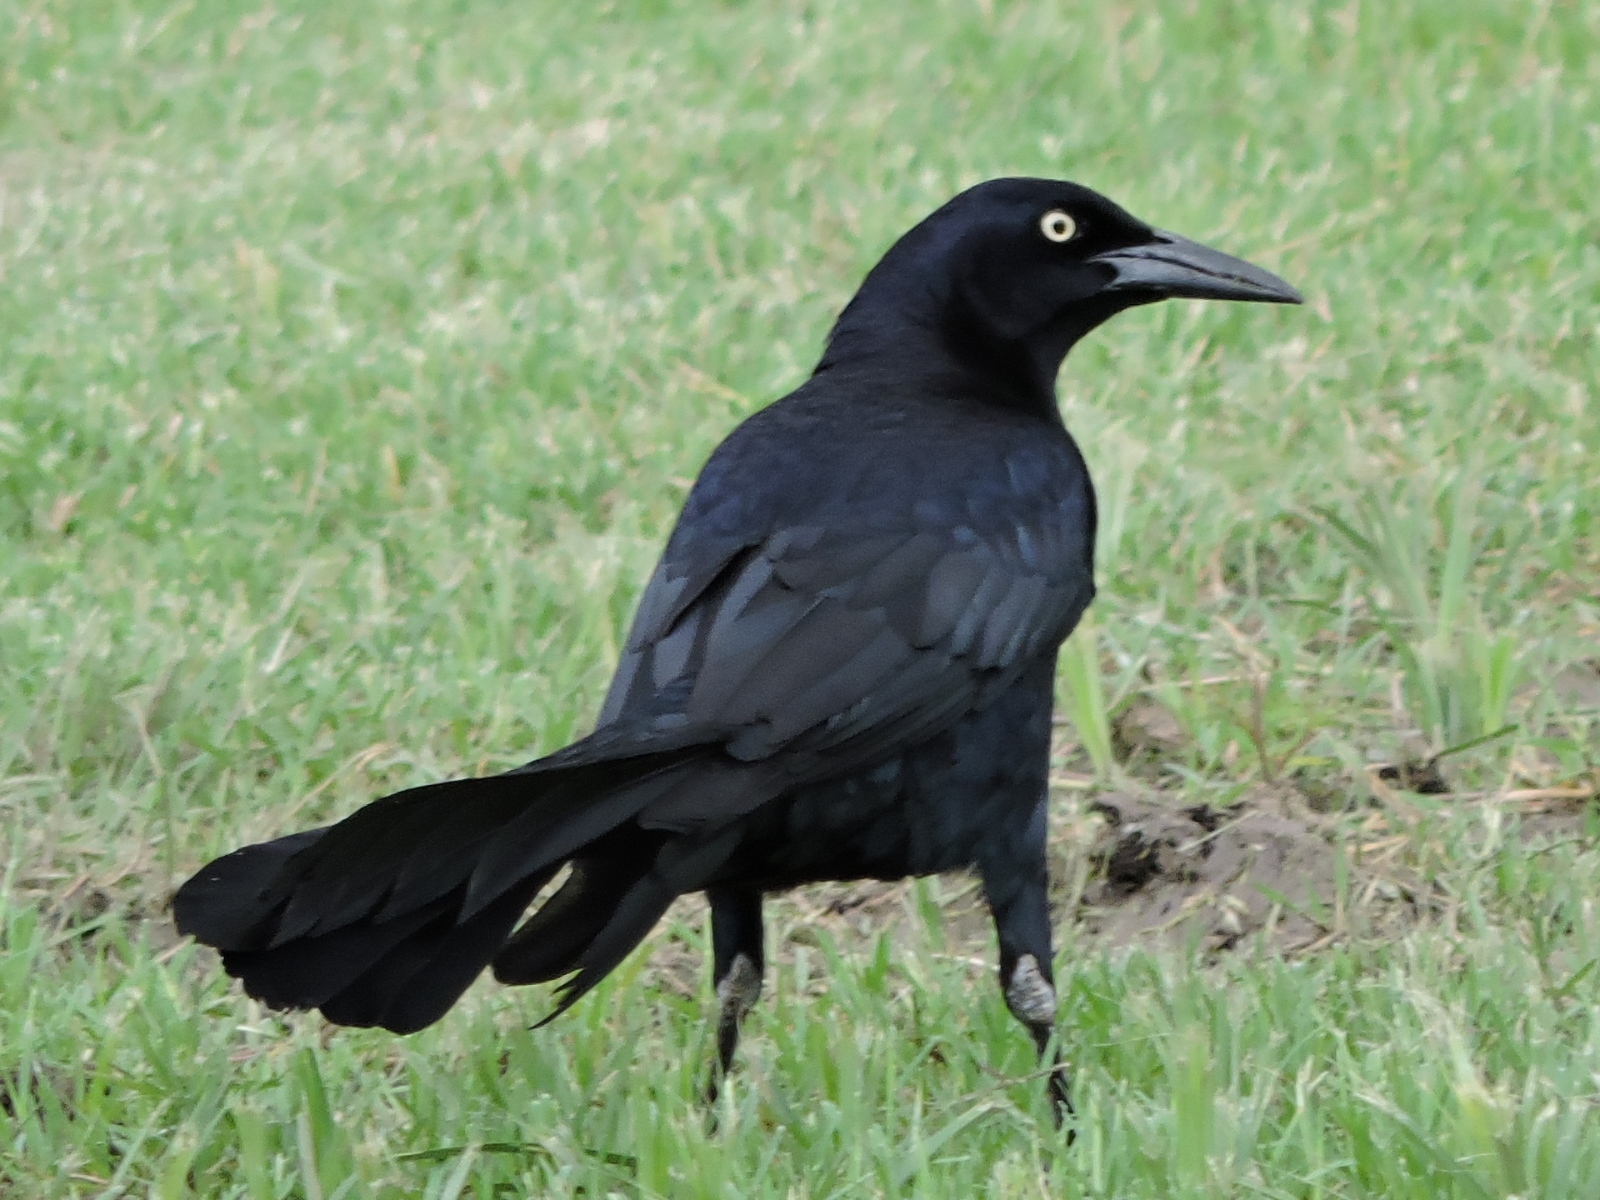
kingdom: Animalia
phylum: Chordata
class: Aves
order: Passeriformes
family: Icteridae
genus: Quiscalus
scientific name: Quiscalus mexicanus
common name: Great-tailed grackle
